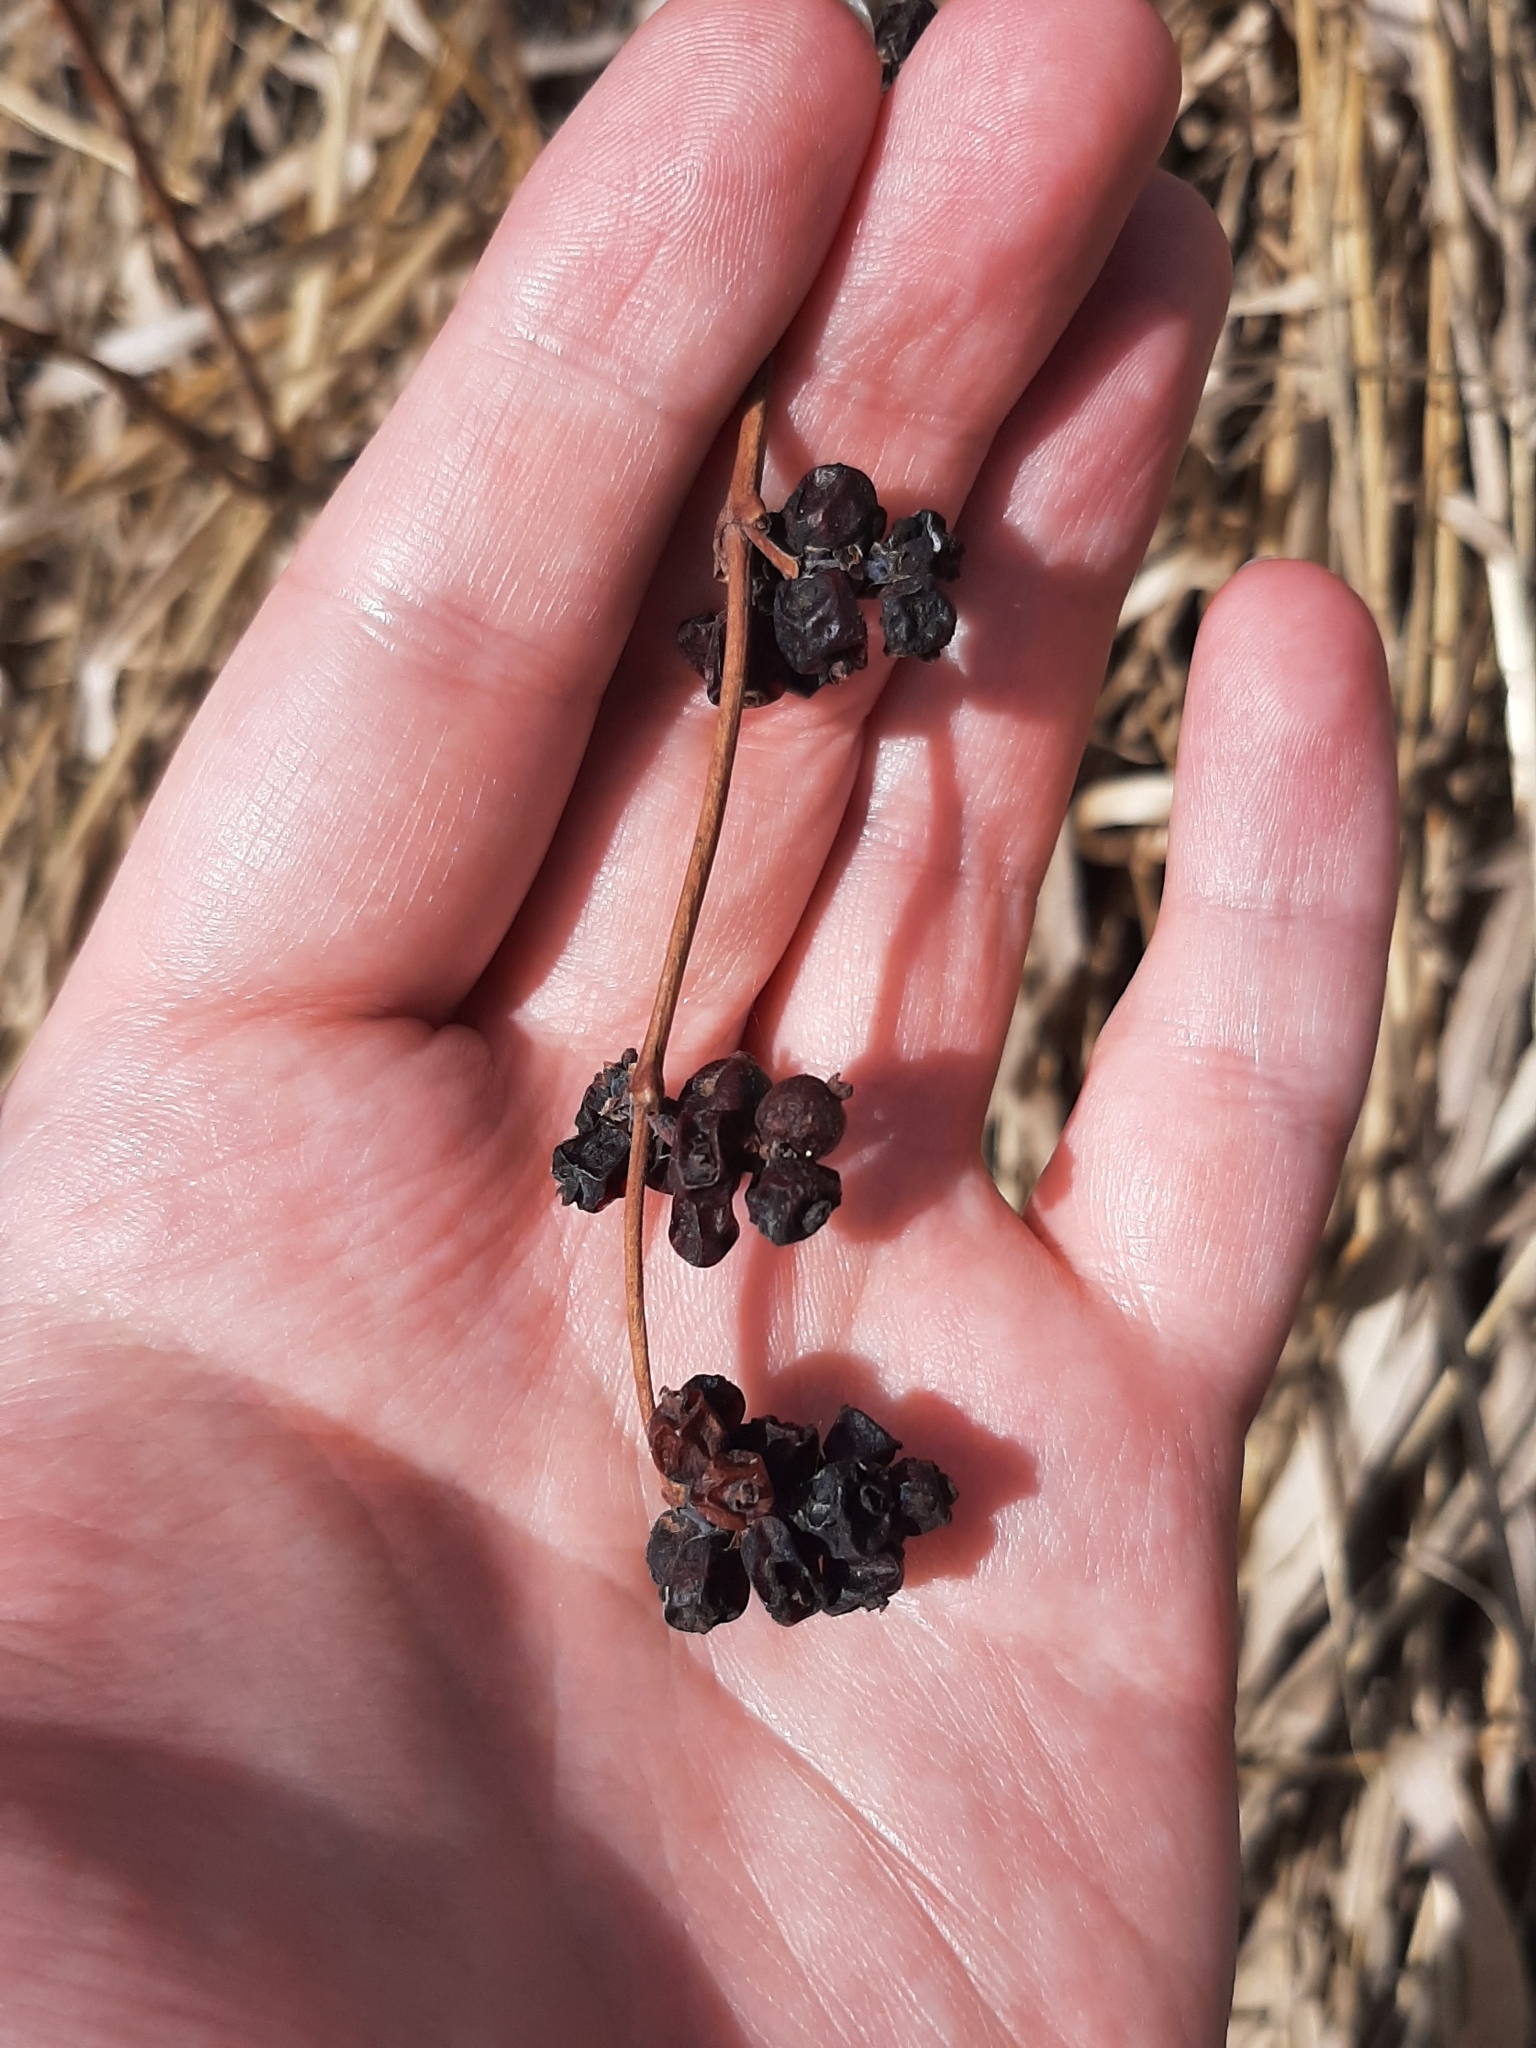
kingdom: Plantae
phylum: Tracheophyta
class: Magnoliopsida
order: Dipsacales
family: Caprifoliaceae
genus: Symphoricarpos
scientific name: Symphoricarpos occidentalis
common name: Wolfberry
